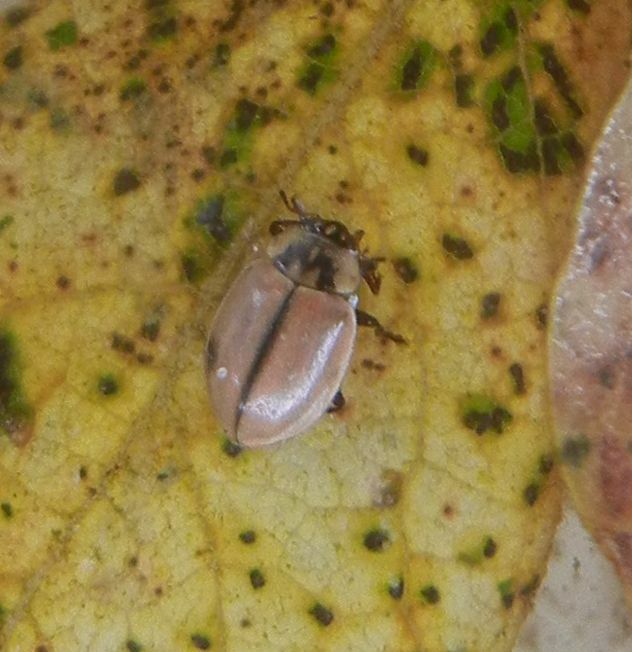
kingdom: Animalia
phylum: Arthropoda
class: Insecta
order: Coleoptera
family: Coccinellidae
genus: Aphidecta
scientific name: Aphidecta obliterata
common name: Larch ladybird
